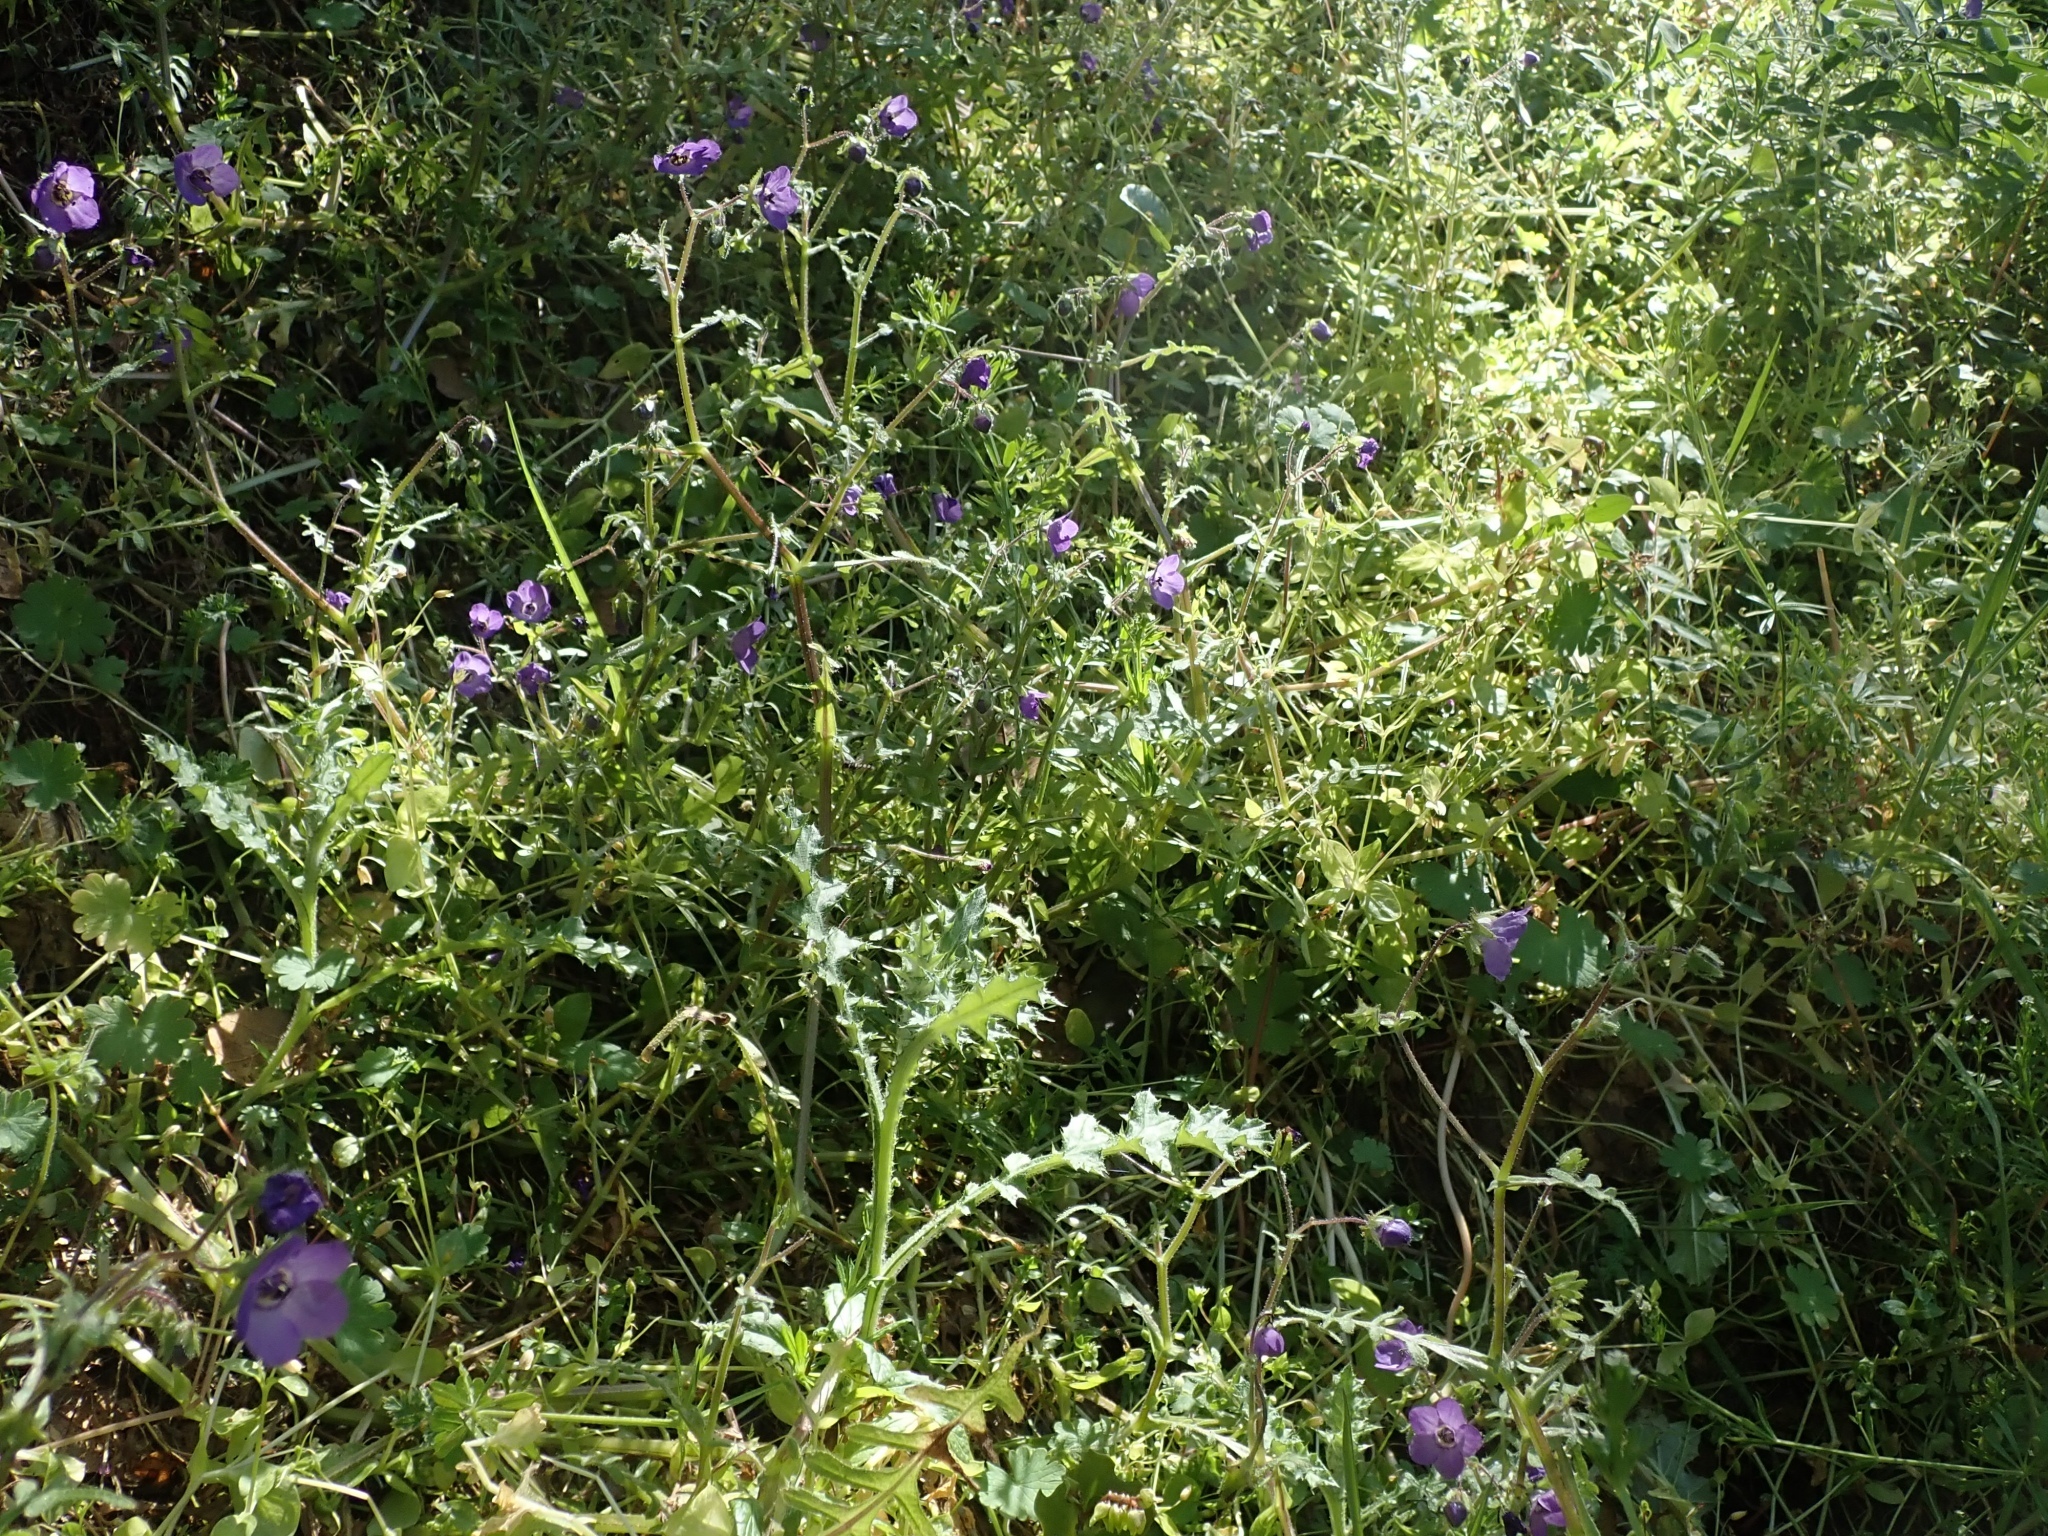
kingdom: Plantae
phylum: Tracheophyta
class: Magnoliopsida
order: Boraginales
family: Hydrophyllaceae
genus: Pholistoma
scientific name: Pholistoma auritum
